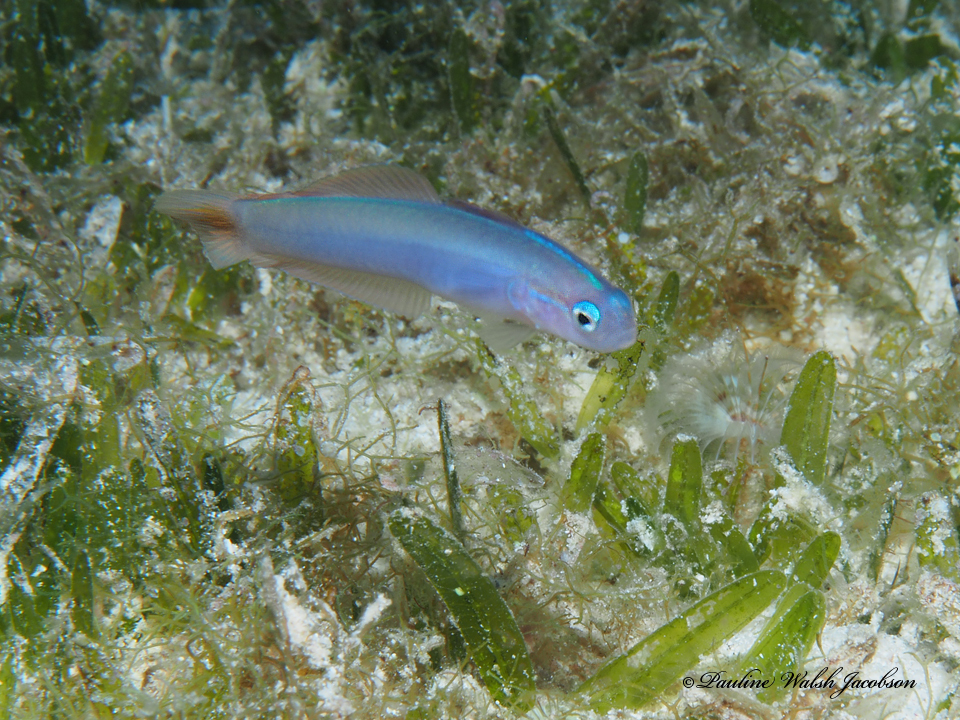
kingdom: Animalia
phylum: Chordata
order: Perciformes
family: Microdesmidae
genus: Ptereleotris
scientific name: Ptereleotris helenae
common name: Hovering goby
